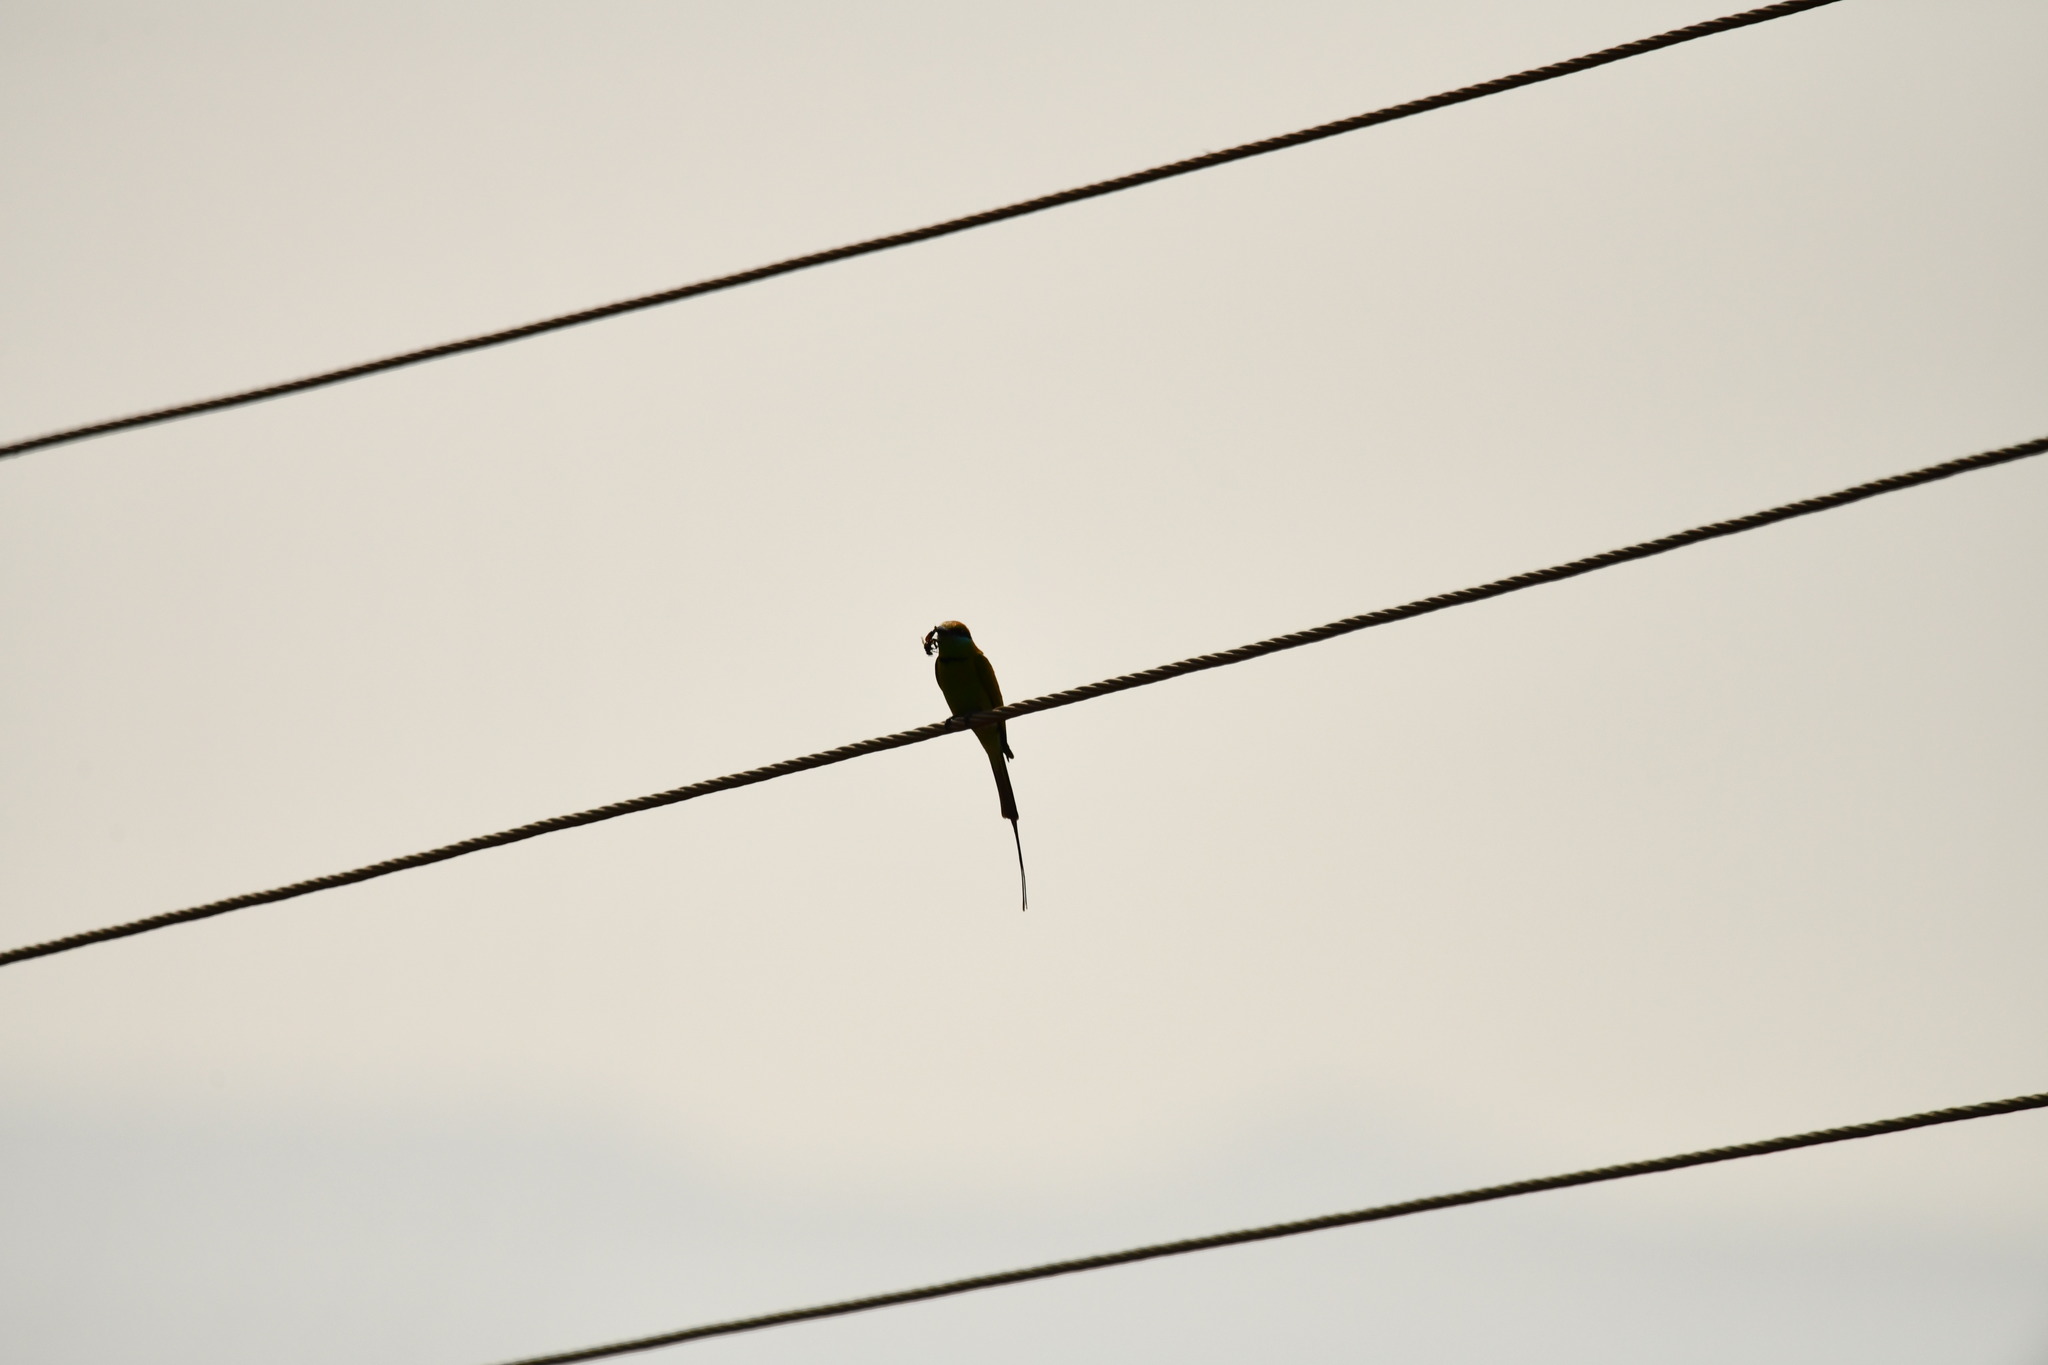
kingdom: Animalia
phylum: Chordata
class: Aves
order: Coraciiformes
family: Meropidae
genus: Merops
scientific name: Merops orientalis
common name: Green bee-eater
